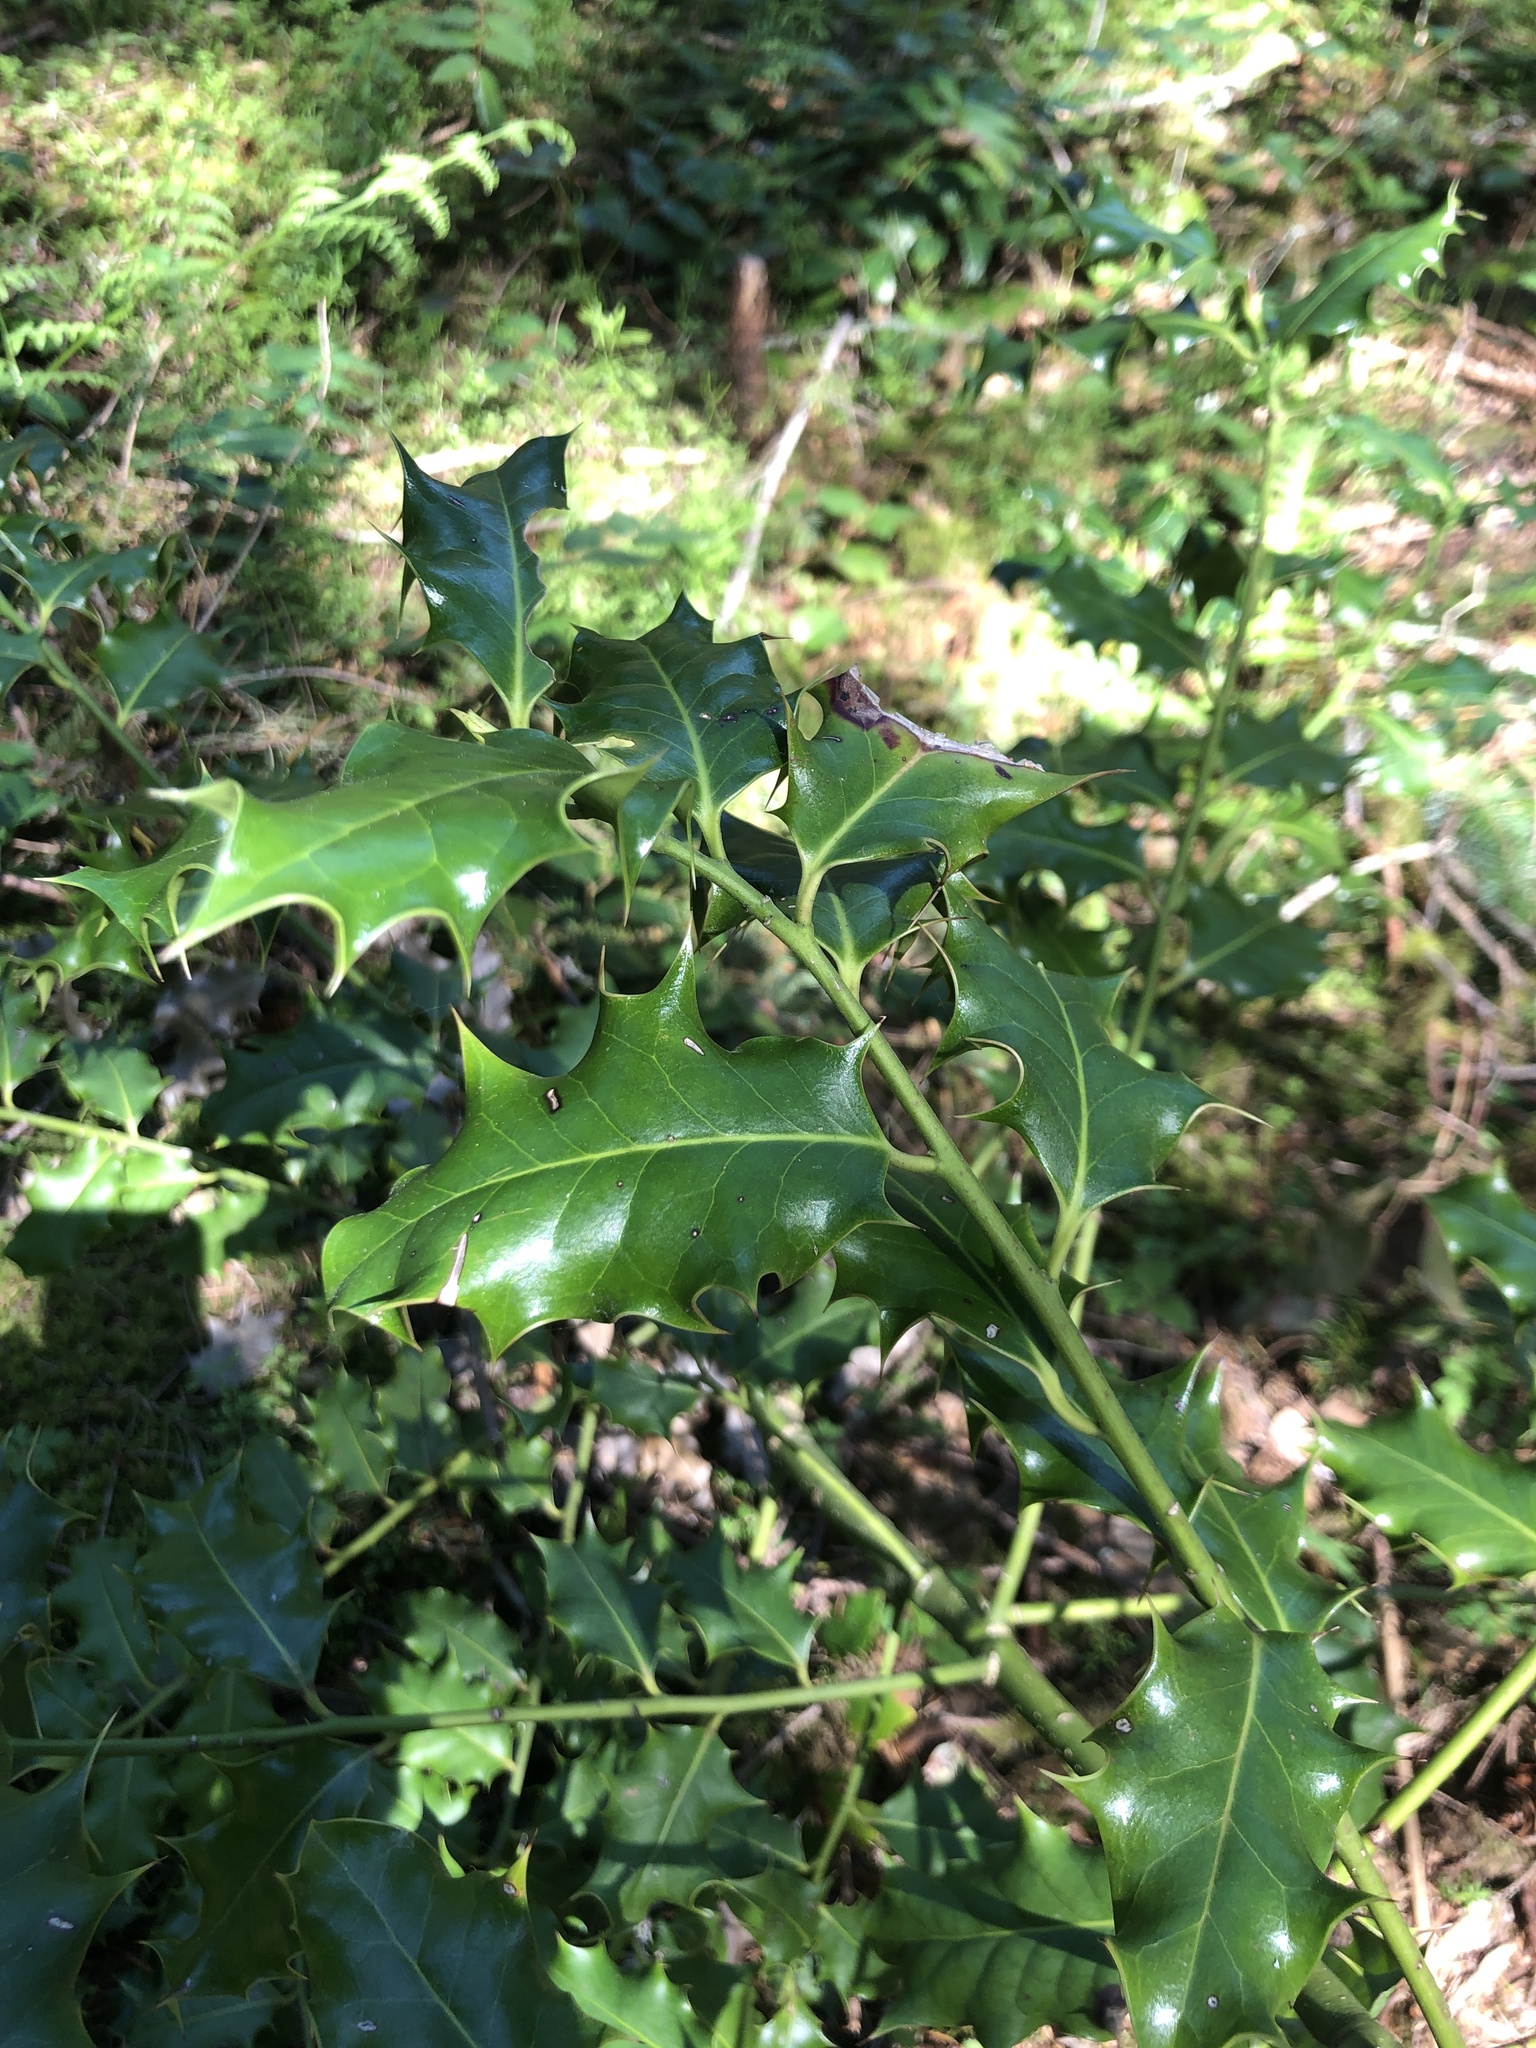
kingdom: Plantae
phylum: Tracheophyta
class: Magnoliopsida
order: Aquifoliales
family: Aquifoliaceae
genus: Ilex
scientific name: Ilex aquifolium
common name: English holly
